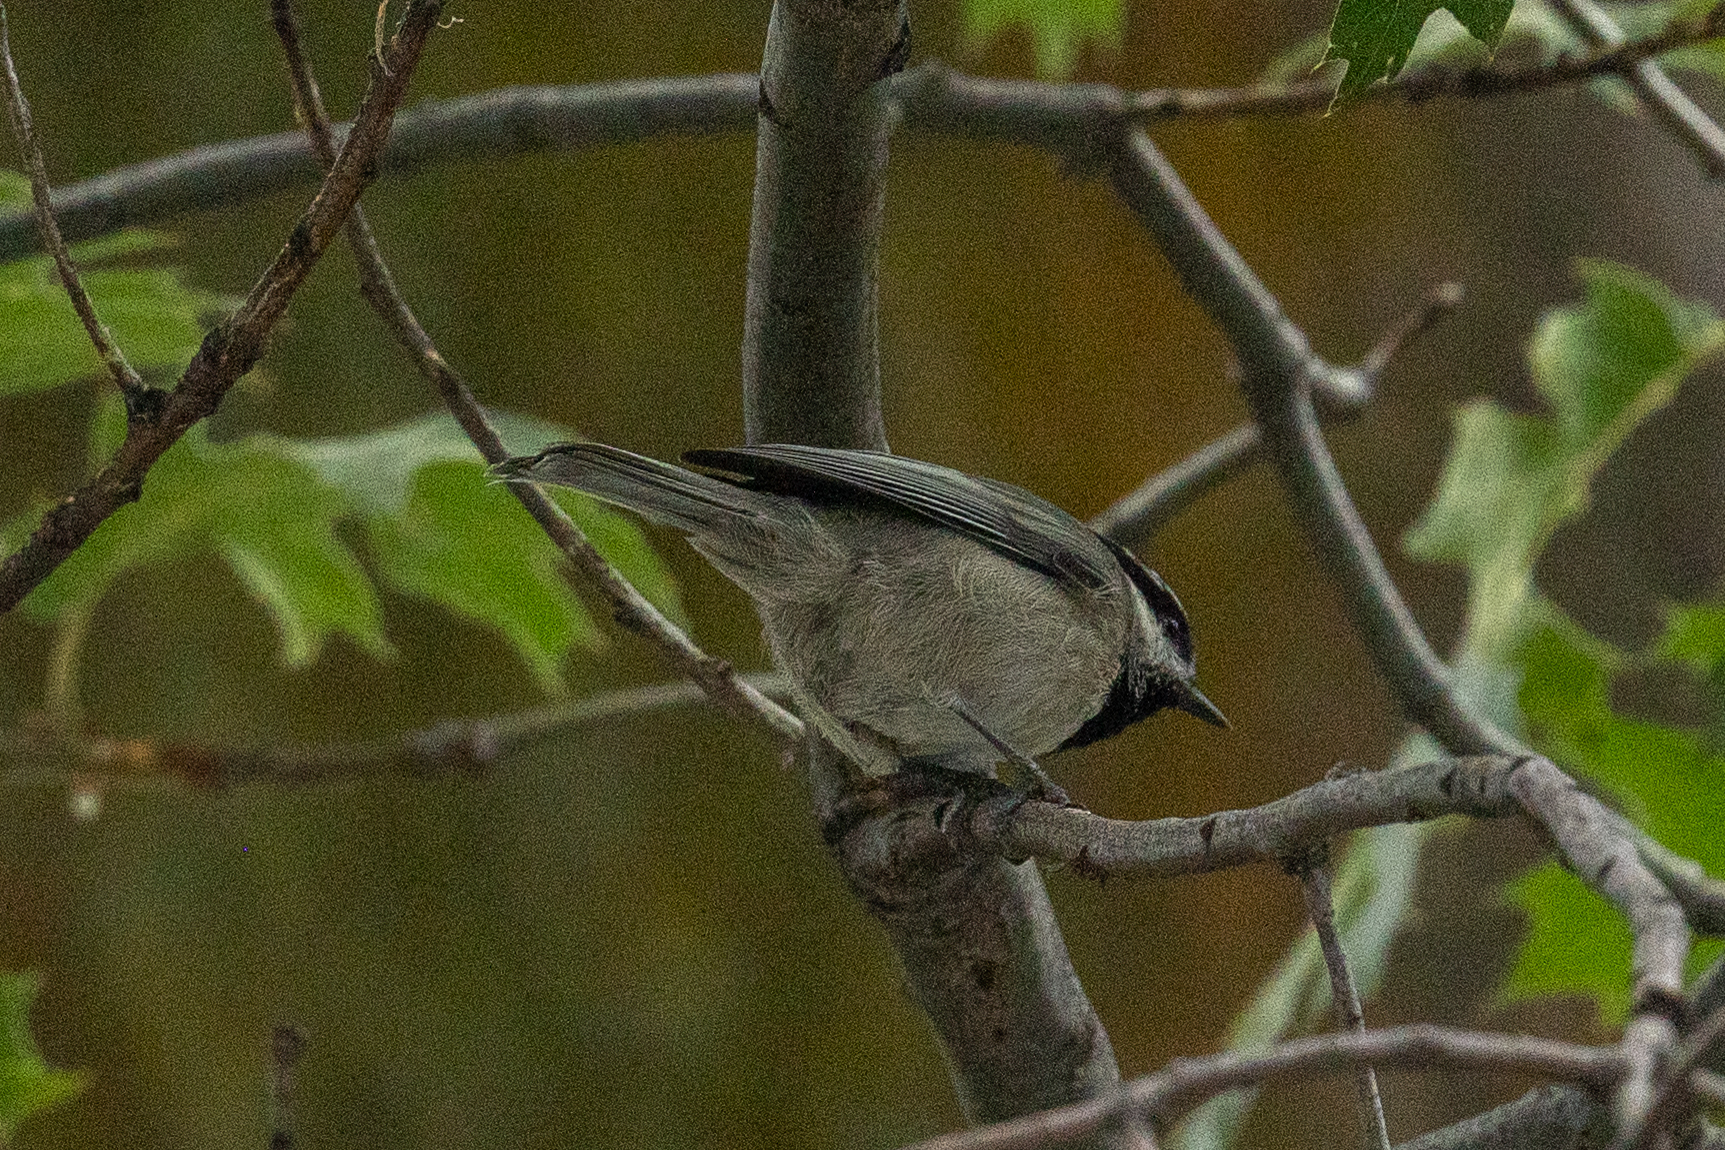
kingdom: Animalia
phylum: Chordata
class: Aves
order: Passeriformes
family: Paridae
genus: Poecile
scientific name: Poecile gambeli
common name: Mountain chickadee
